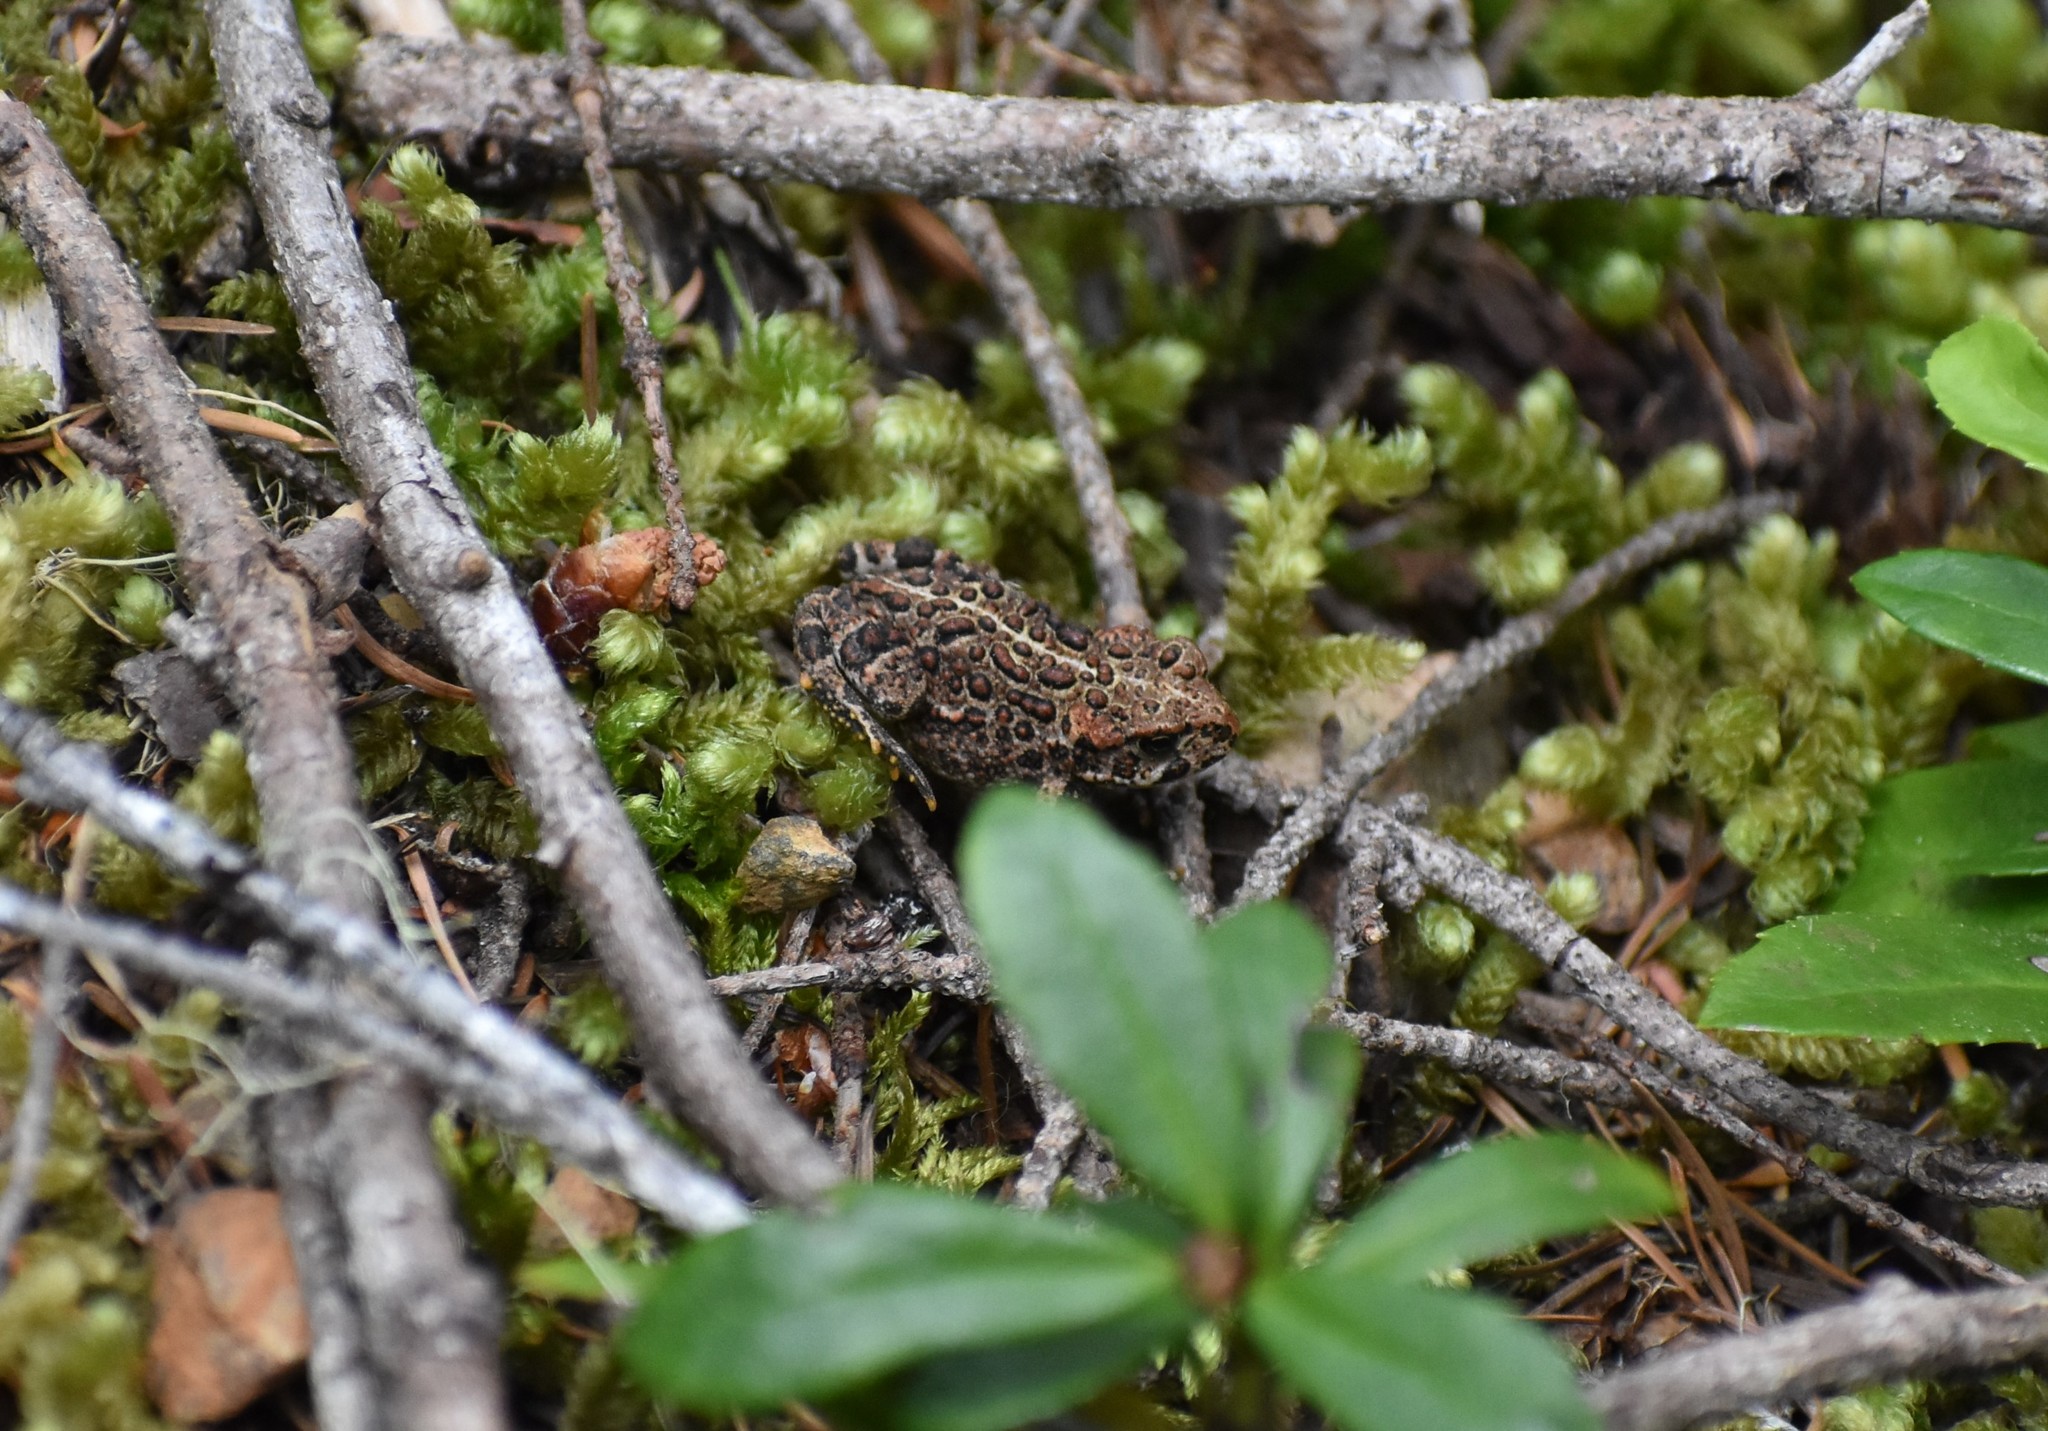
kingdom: Animalia
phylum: Chordata
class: Amphibia
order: Anura
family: Bufonidae
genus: Anaxyrus
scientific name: Anaxyrus boreas
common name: Western toad
